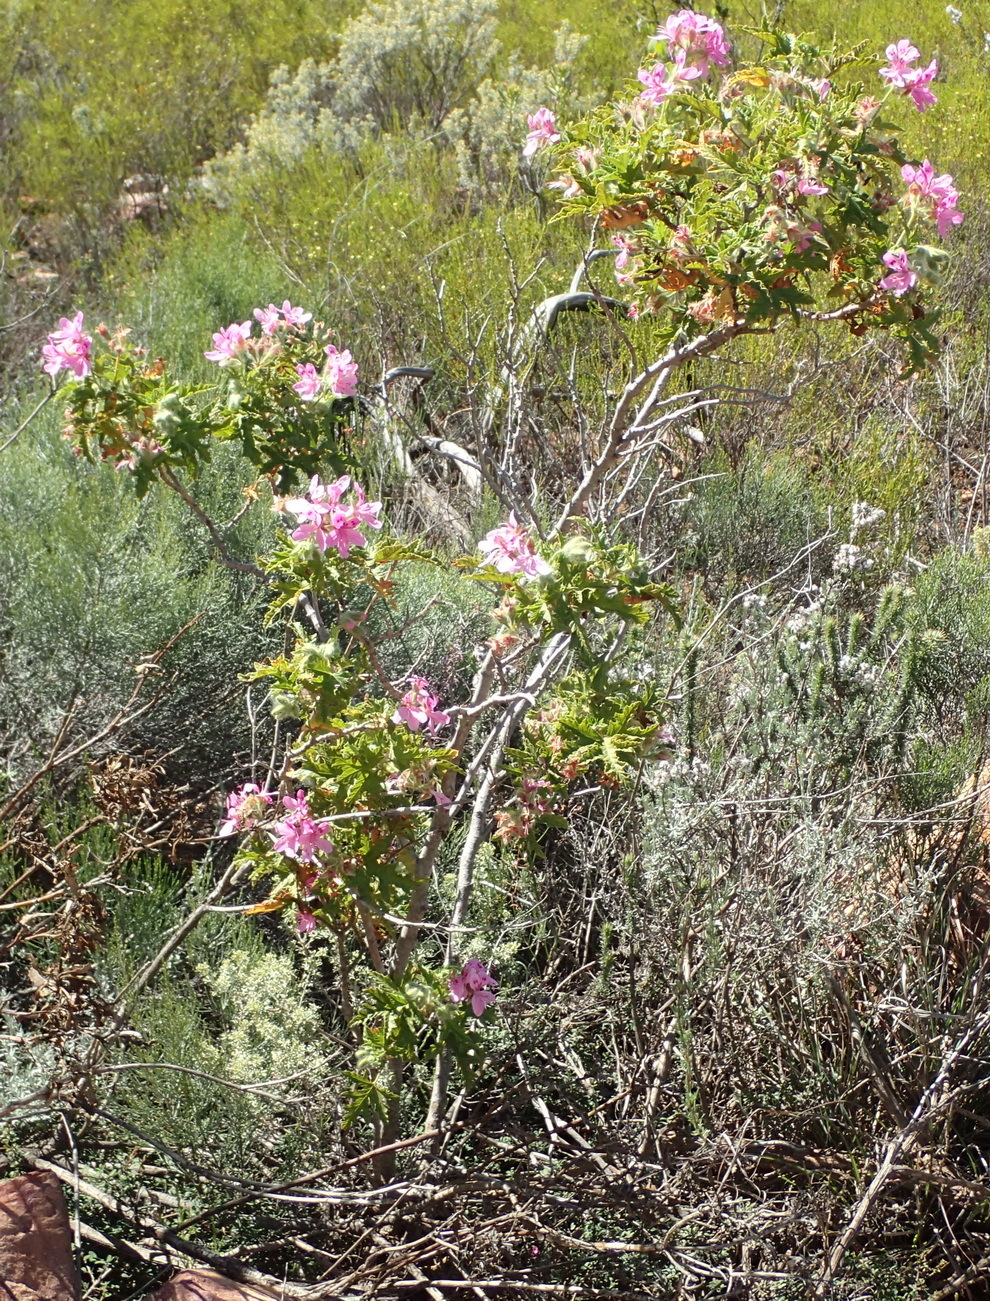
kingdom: Plantae
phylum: Tracheophyta
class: Magnoliopsida
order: Geraniales
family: Geraniaceae
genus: Pelargonium
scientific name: Pelargonium glutinosum
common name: Pheasant-foot geranium
